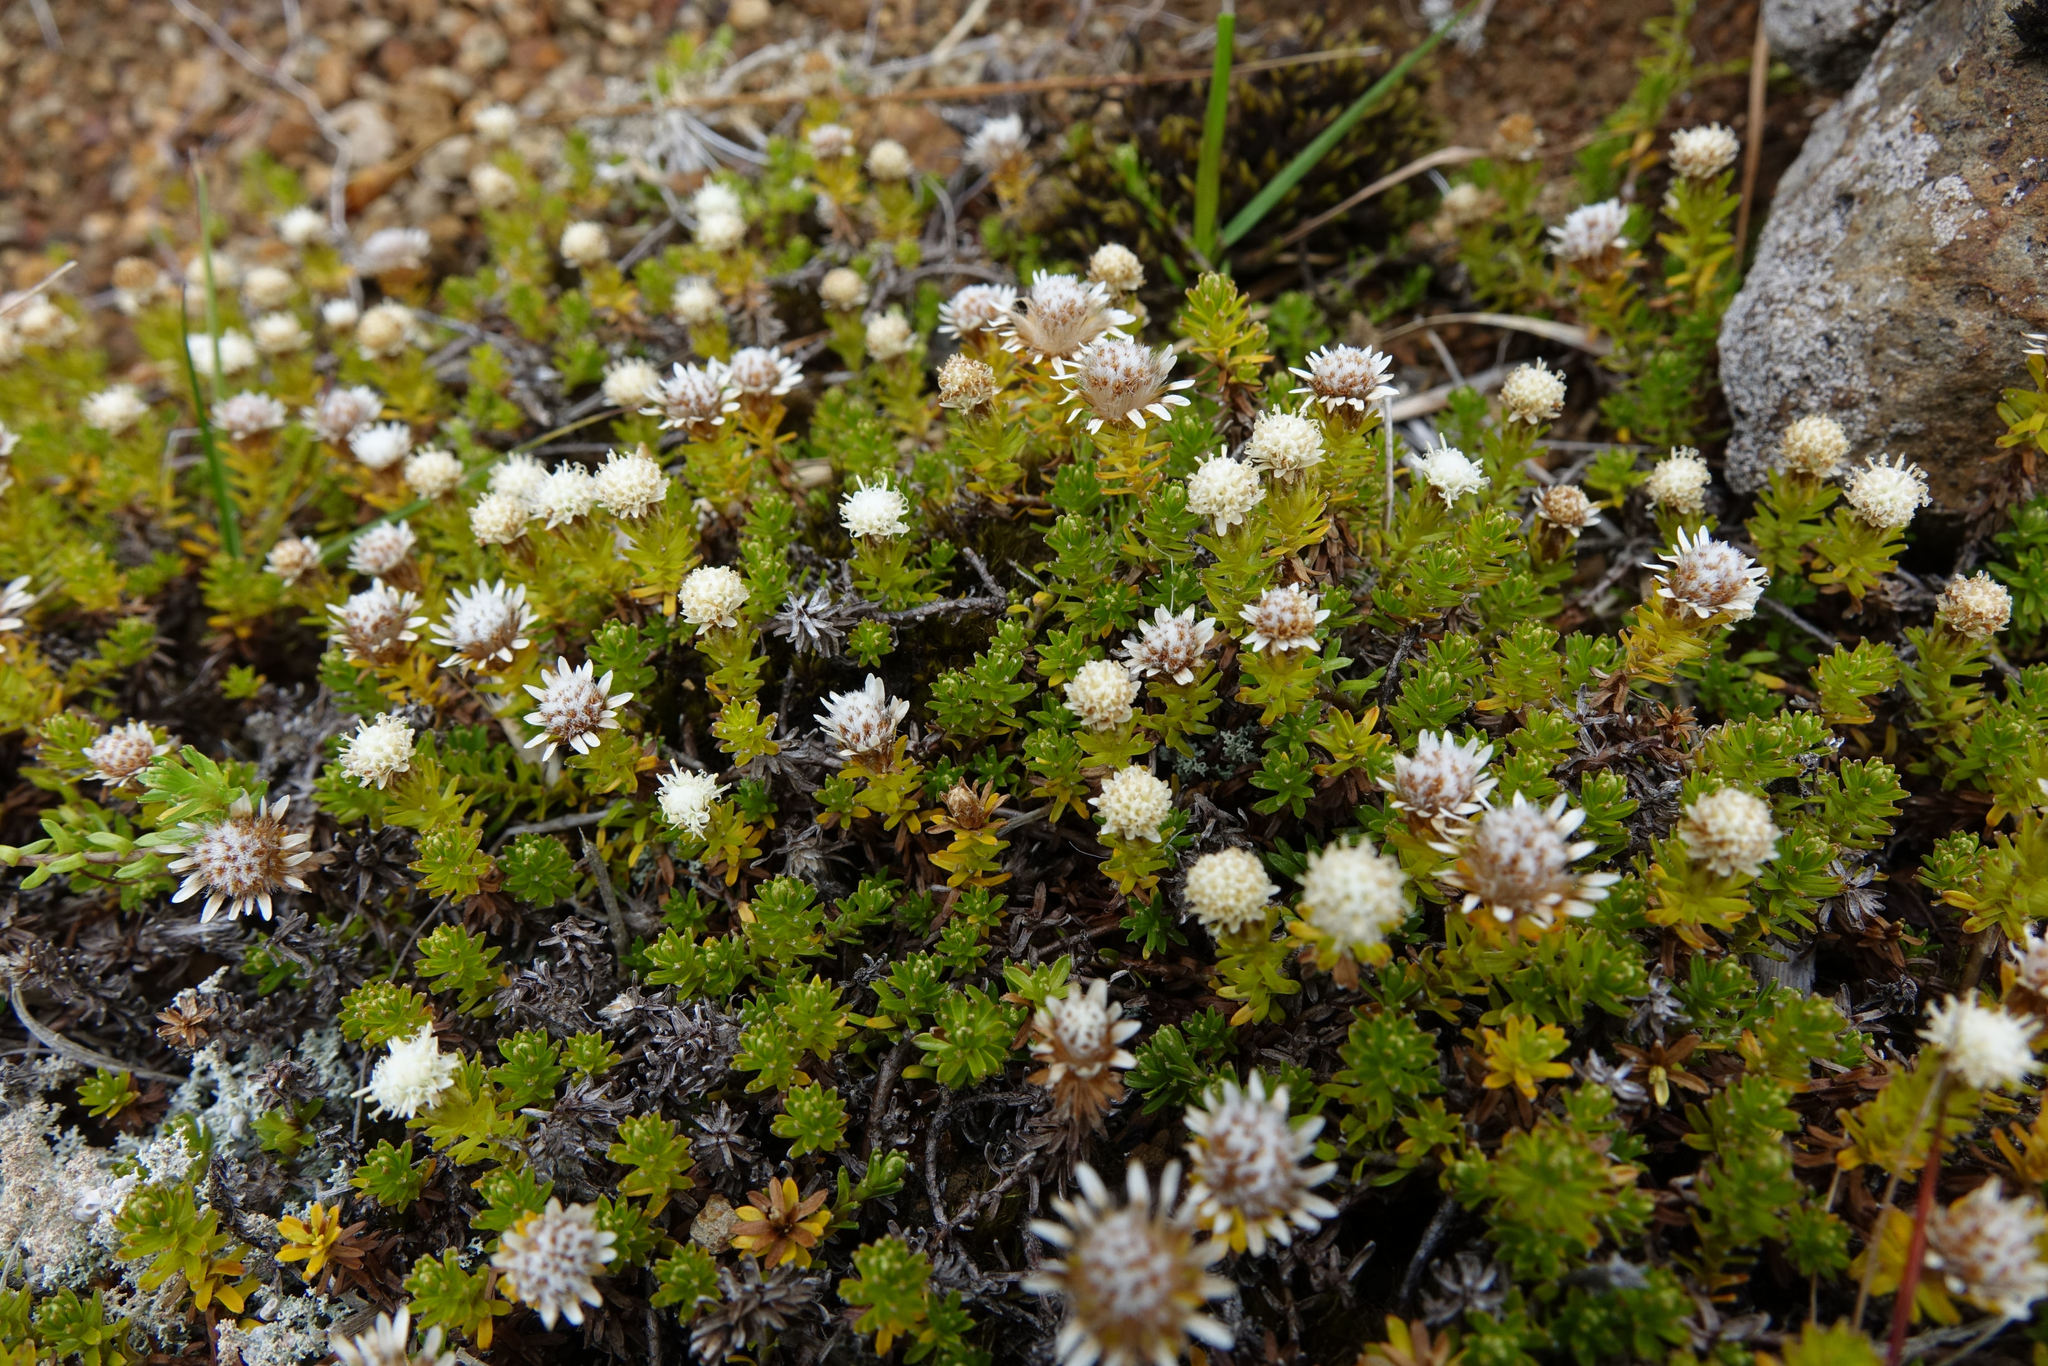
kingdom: Plantae
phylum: Tracheophyta
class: Magnoliopsida
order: Asterales
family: Asteraceae
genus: Raoulia
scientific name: Raoulia glabra
